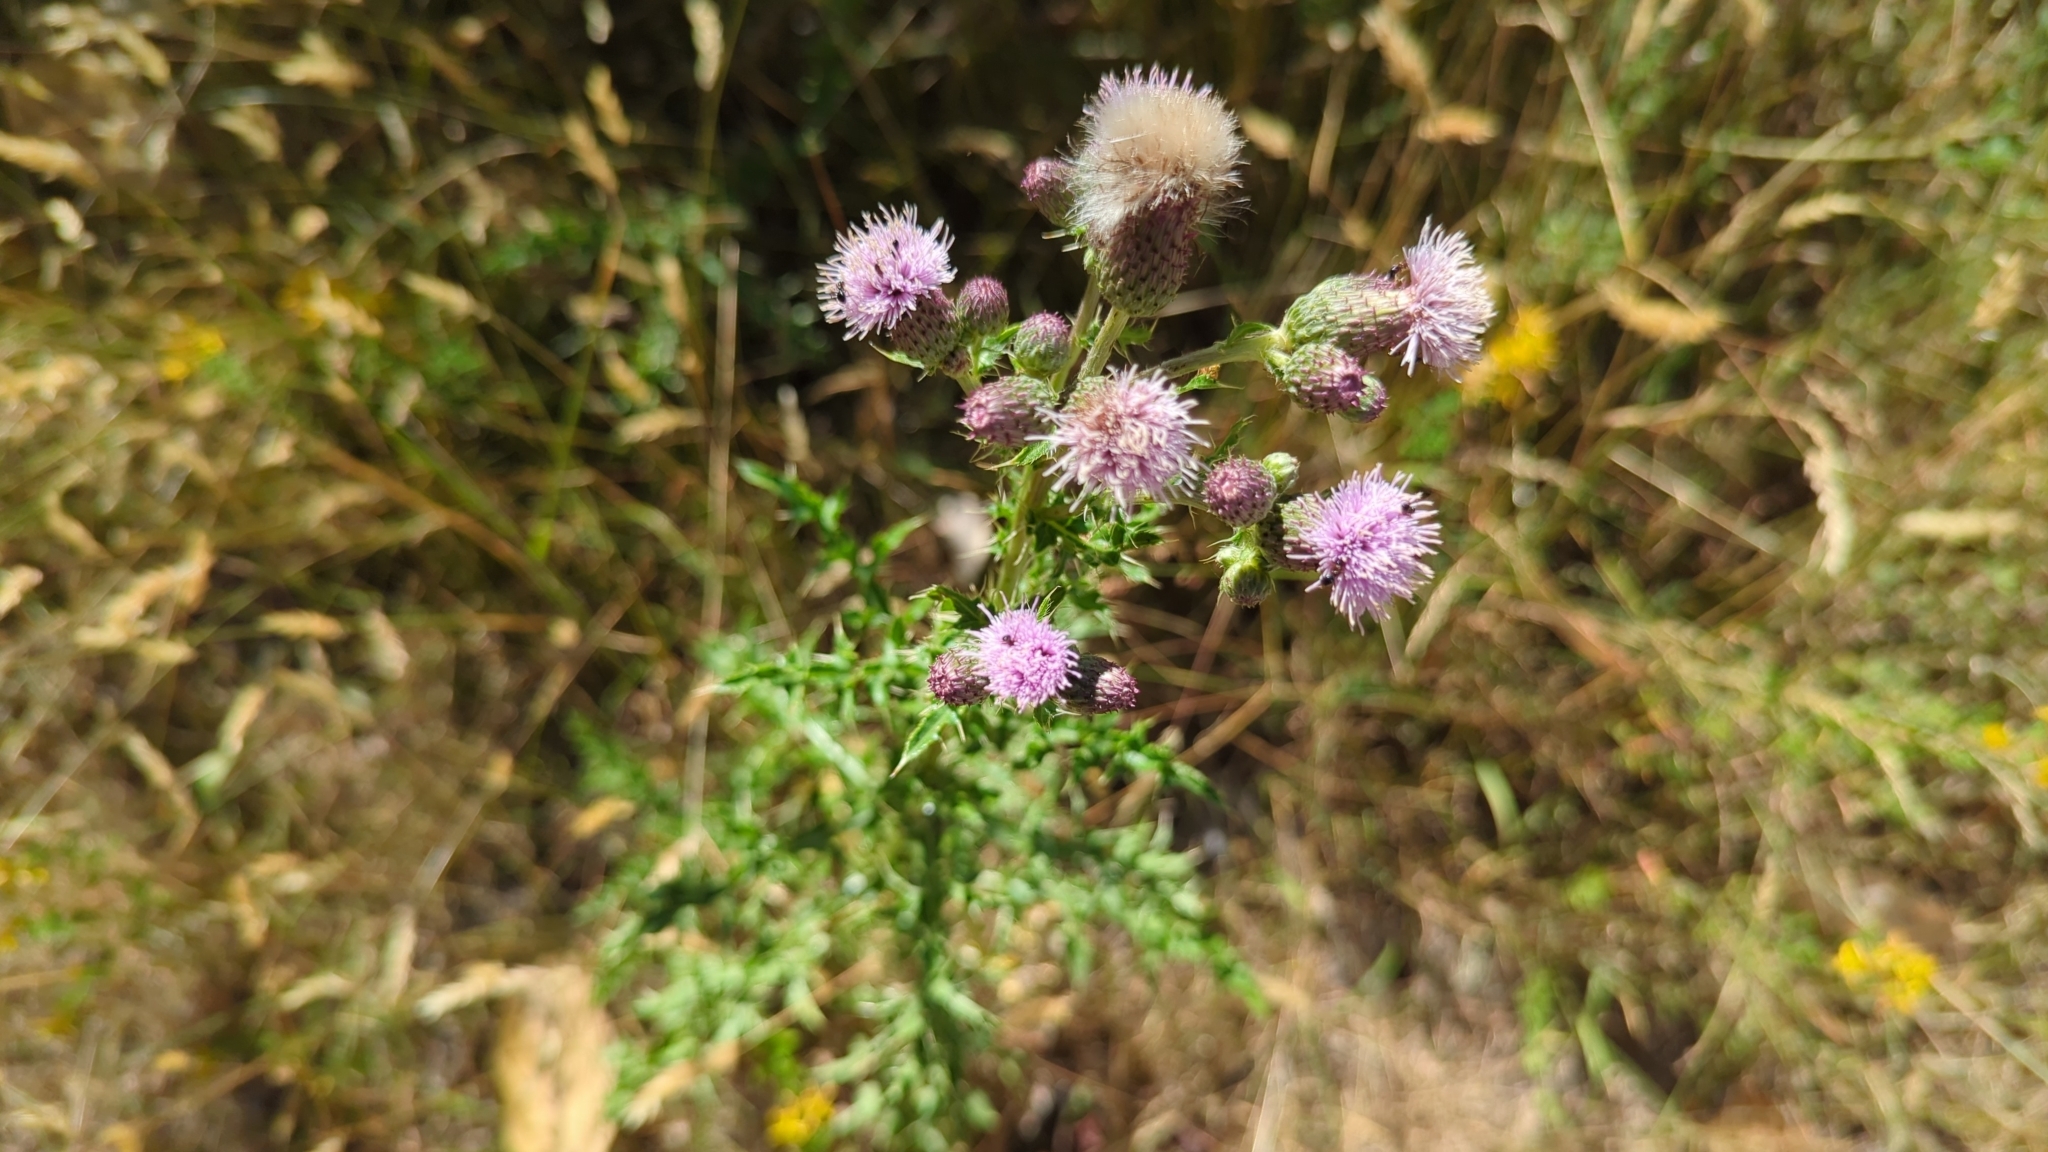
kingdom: Plantae
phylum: Tracheophyta
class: Magnoliopsida
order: Asterales
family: Asteraceae
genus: Cirsium
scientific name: Cirsium arvense
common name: Creeping thistle
